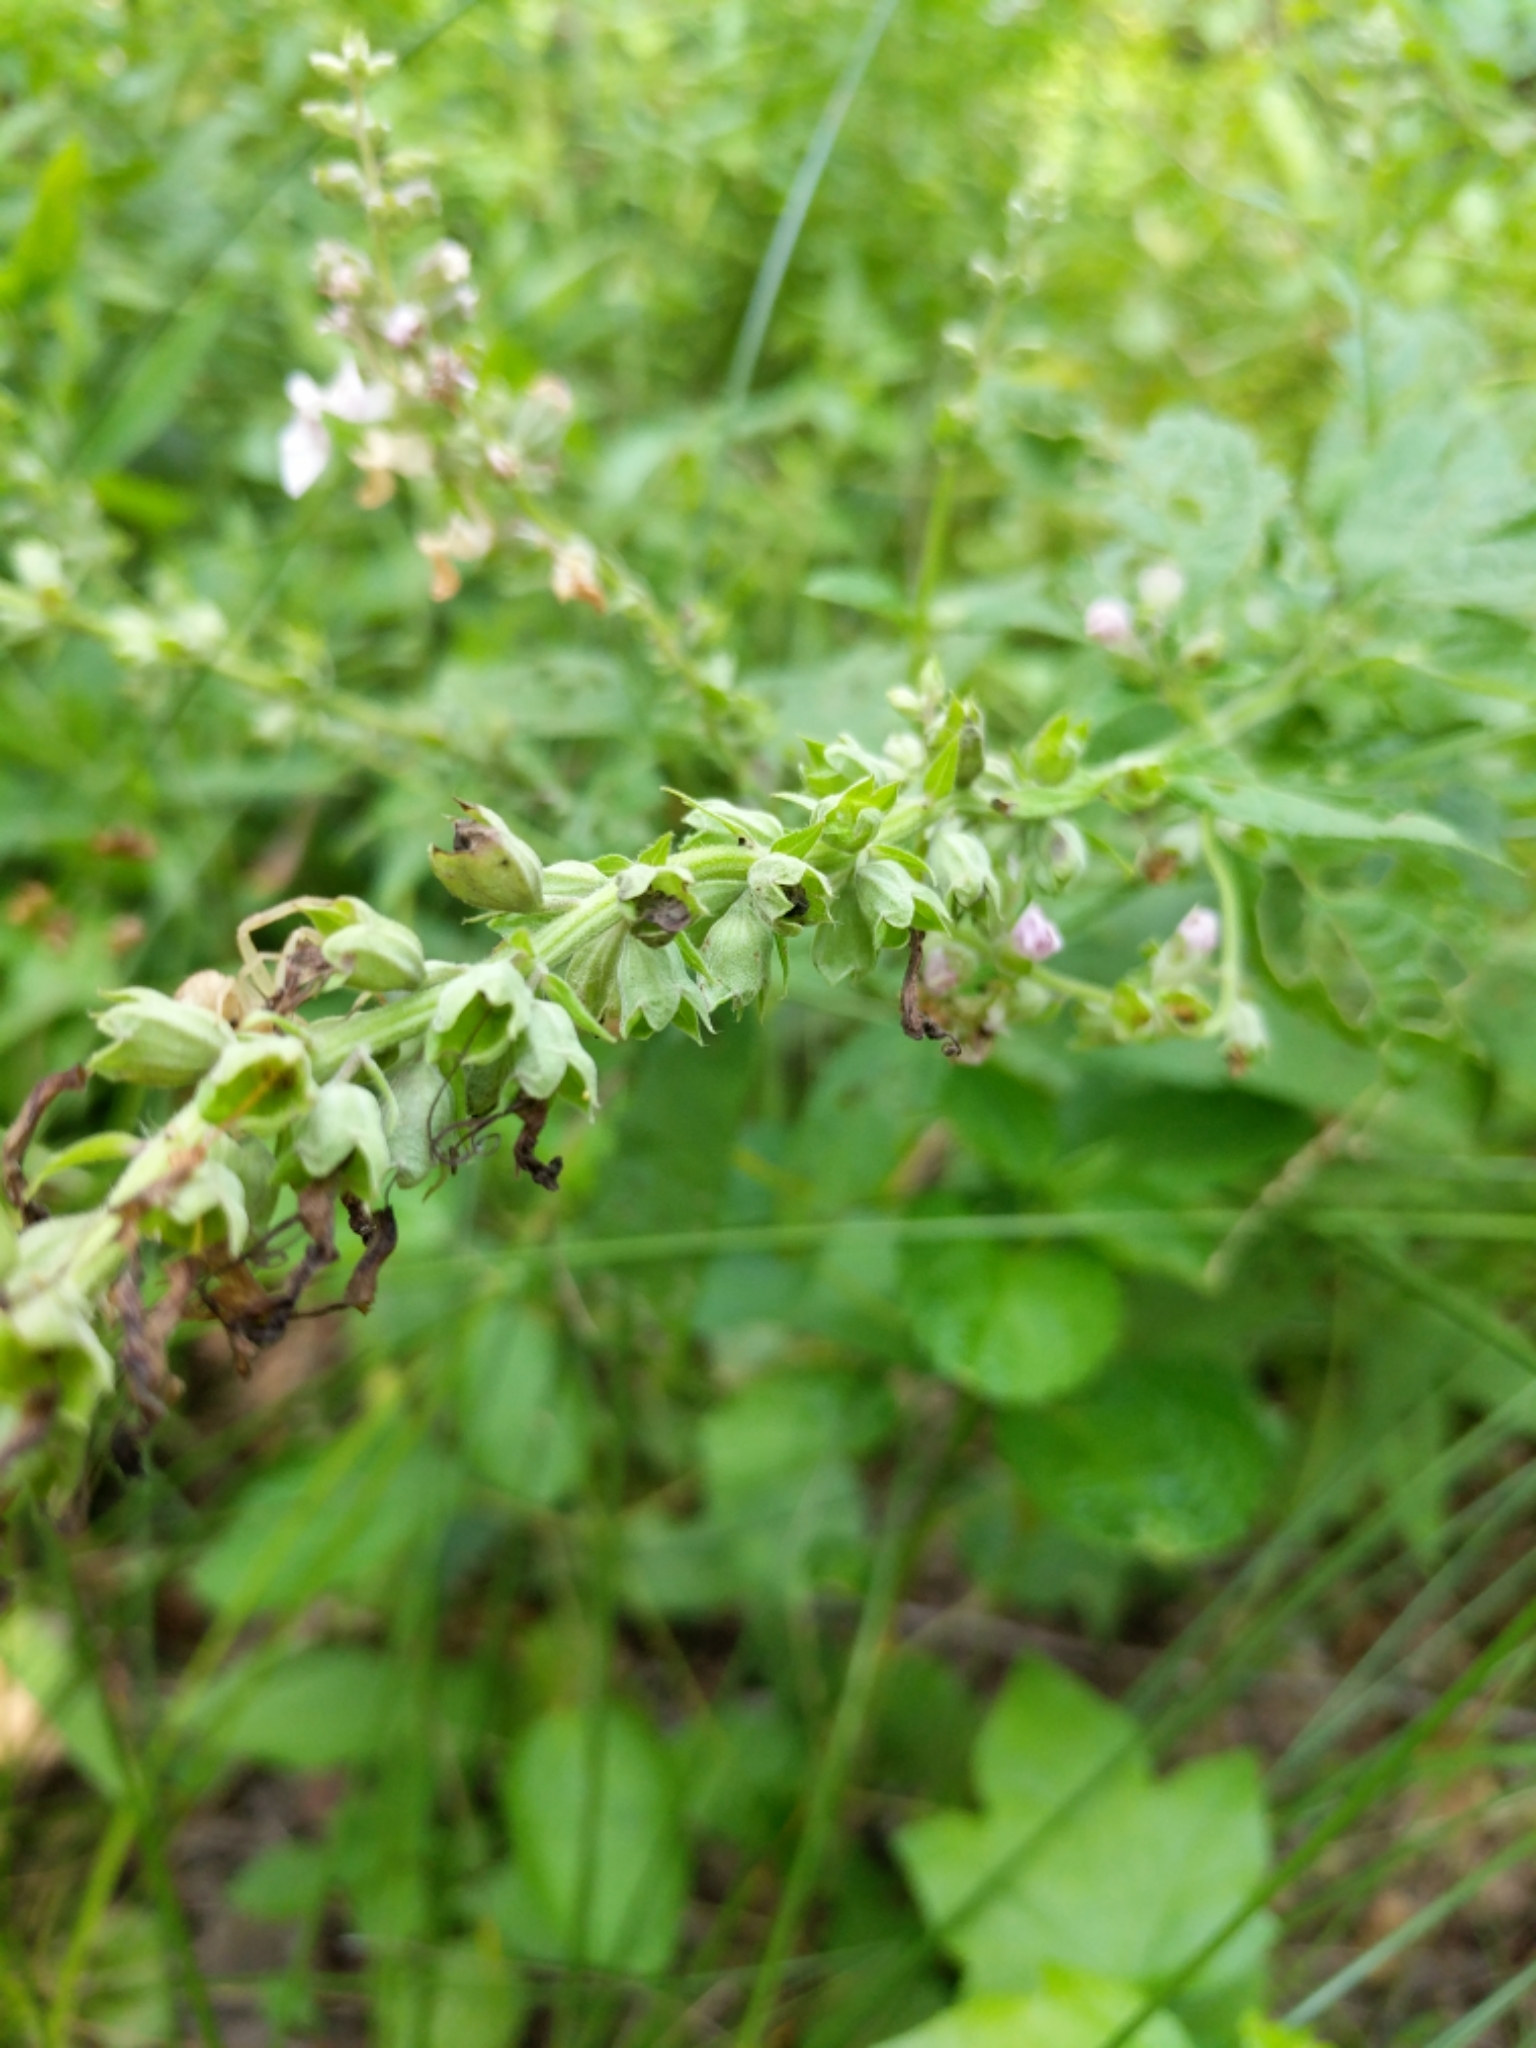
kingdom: Plantae
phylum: Tracheophyta
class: Magnoliopsida
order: Lamiales
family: Lamiaceae
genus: Teucrium
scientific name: Teucrium canadense
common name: American germander
